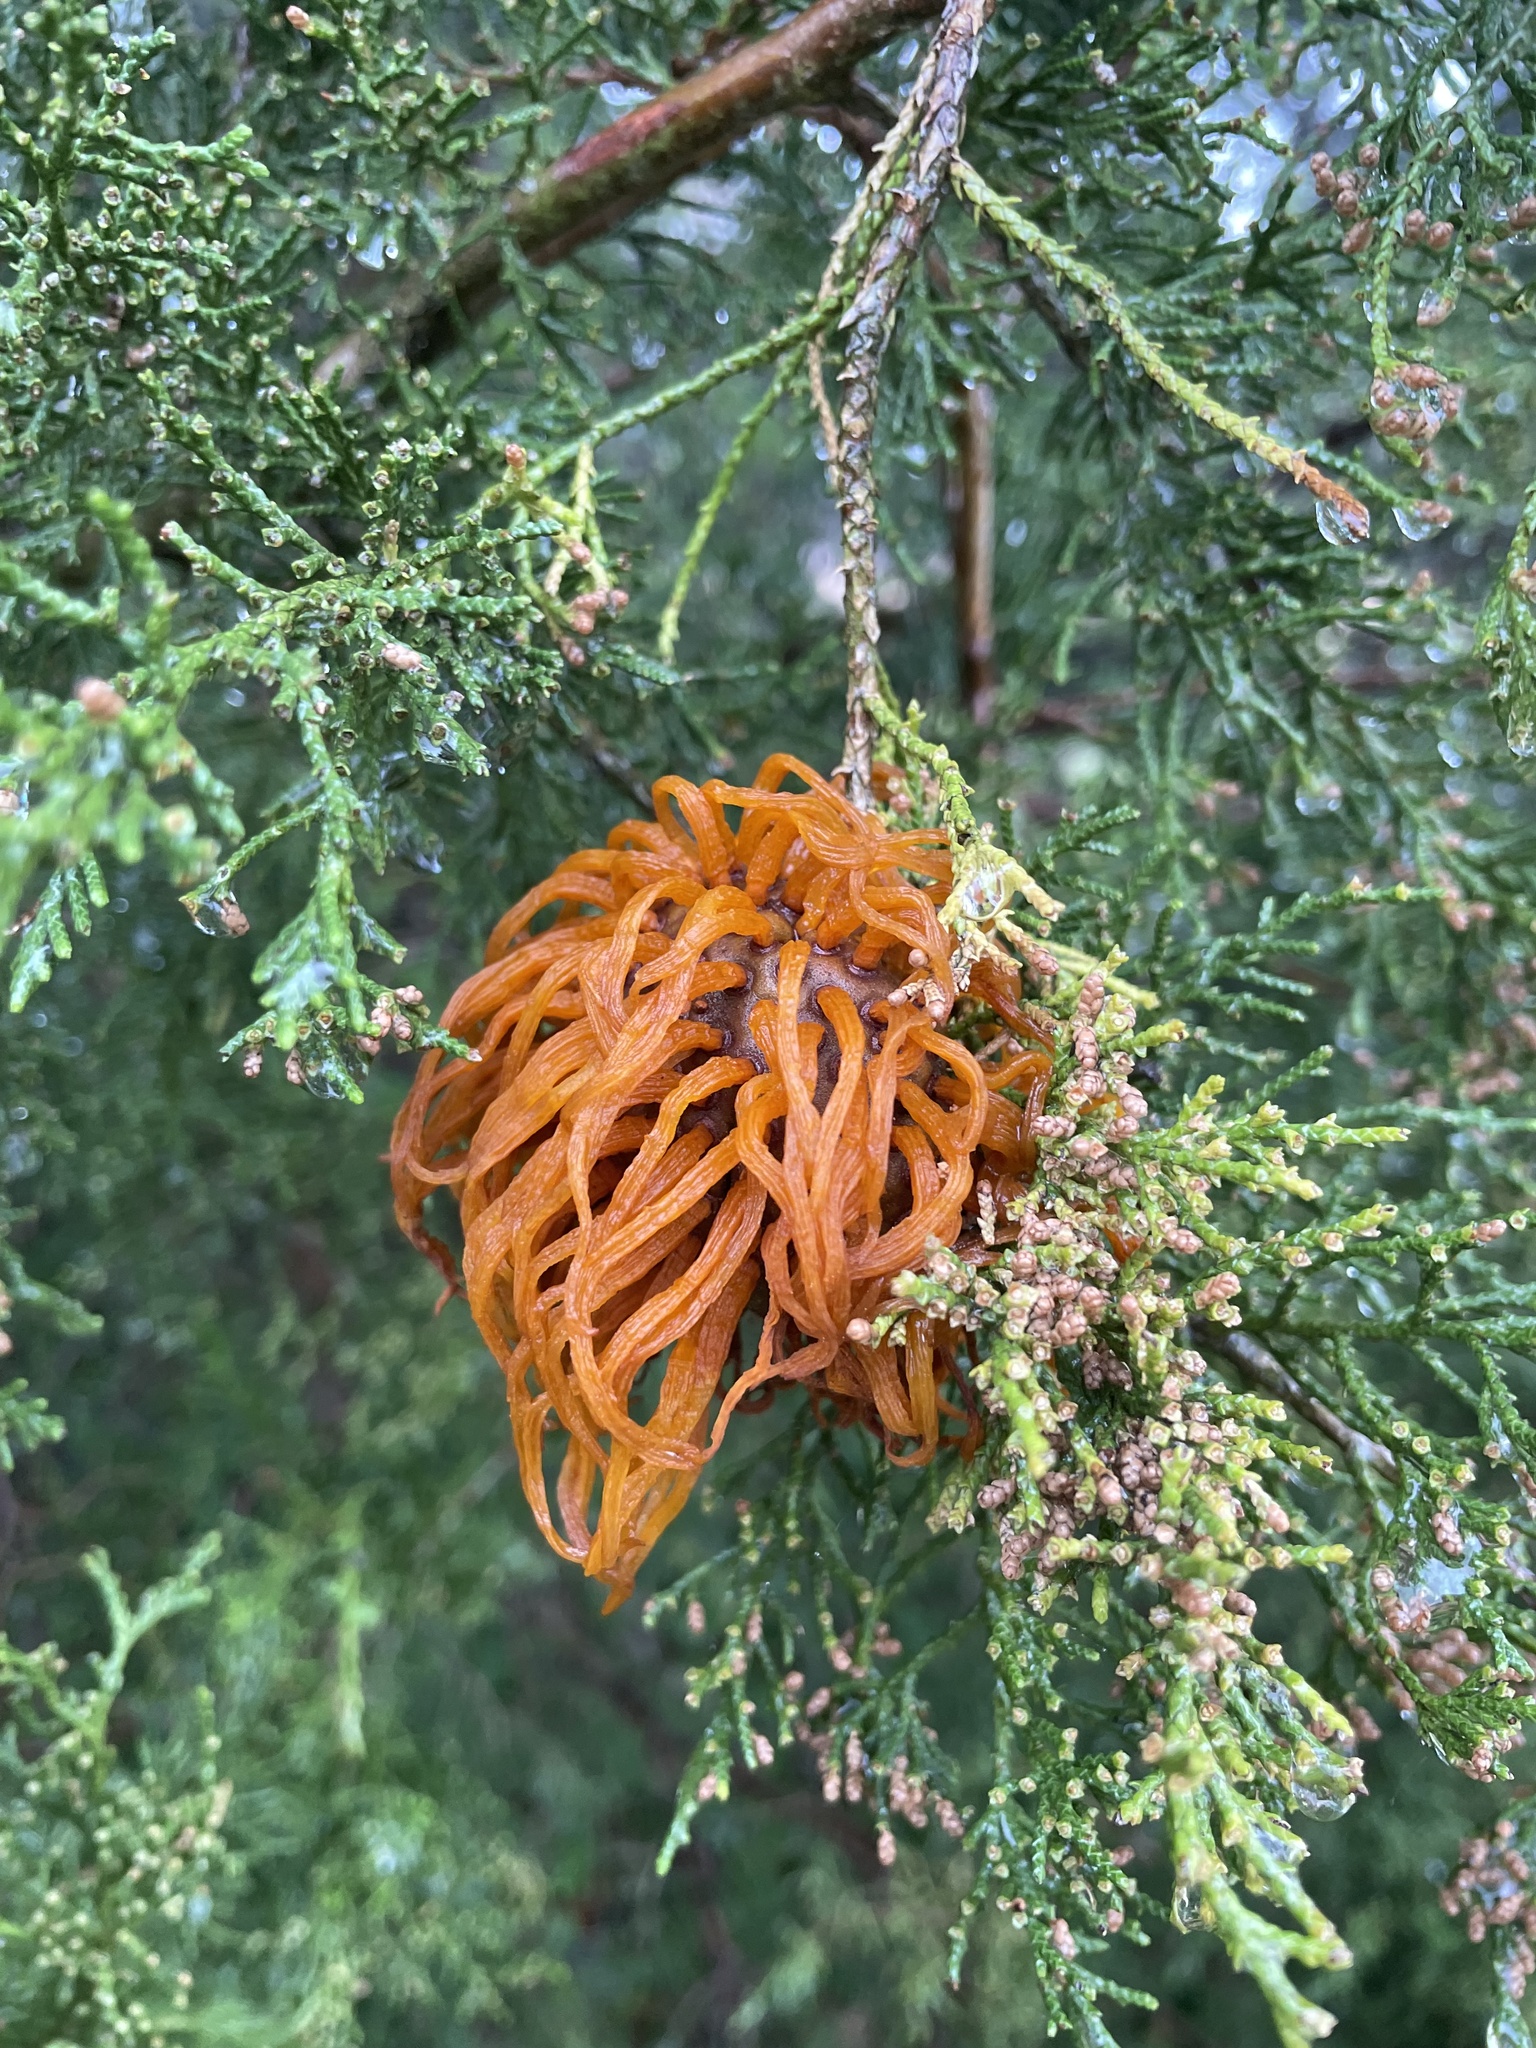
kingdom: Fungi
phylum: Basidiomycota
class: Pucciniomycetes
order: Pucciniales
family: Gymnosporangiaceae
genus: Gymnosporangium
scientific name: Gymnosporangium juniperi-virginianae
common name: Juniper-apple rust
